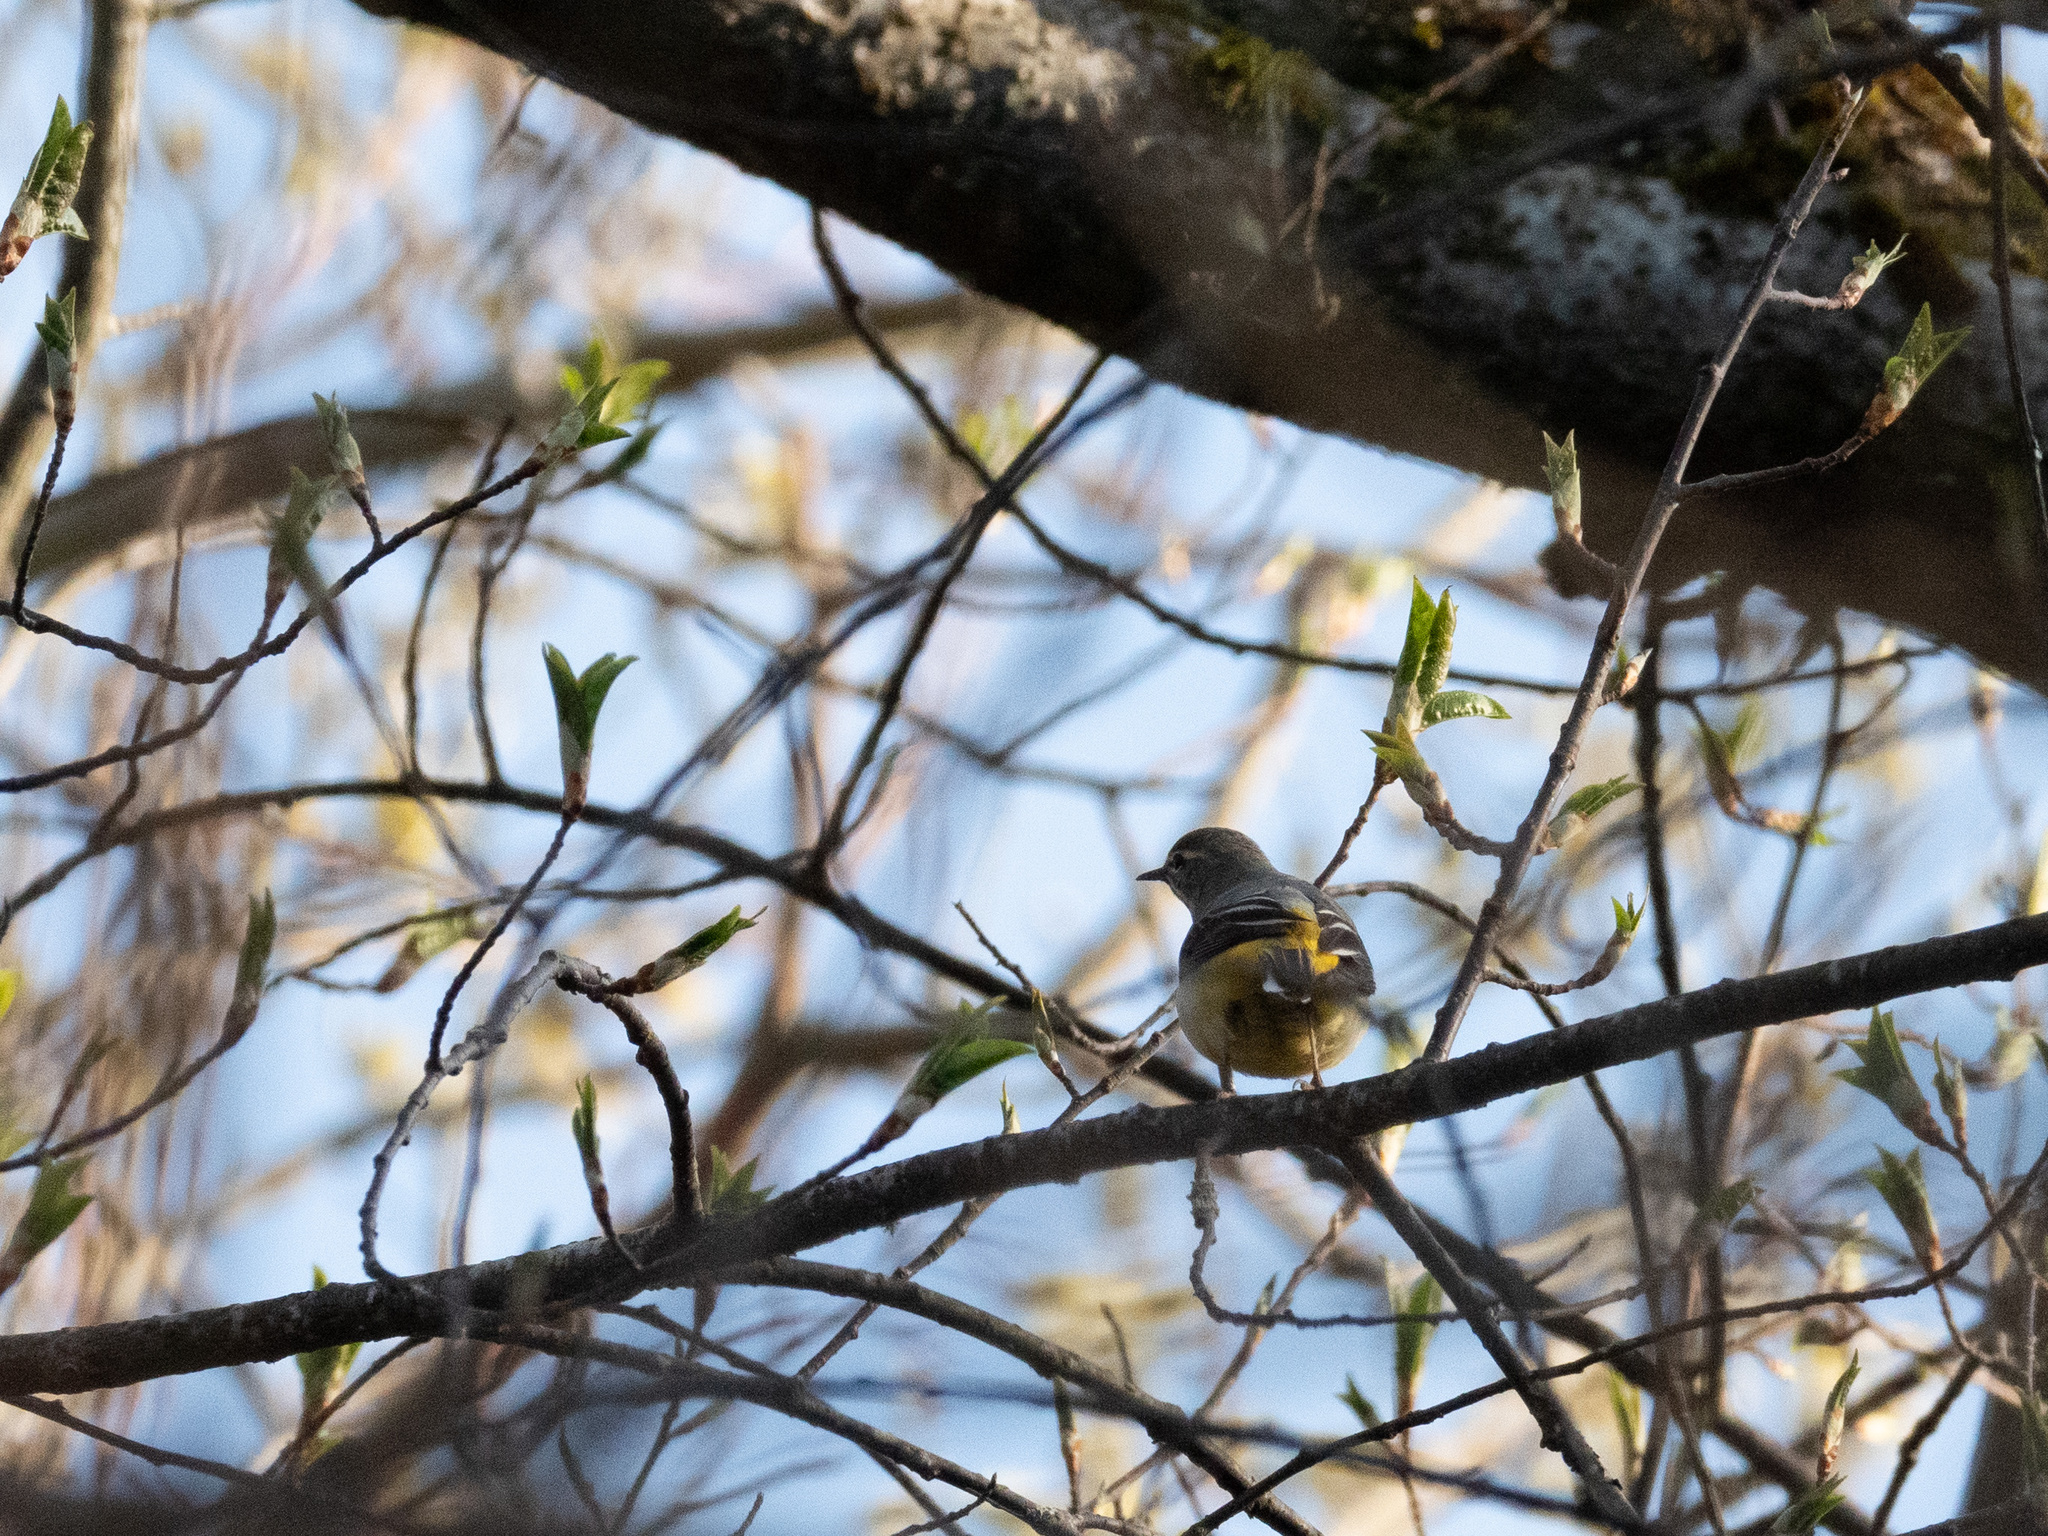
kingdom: Animalia
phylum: Chordata
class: Aves
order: Passeriformes
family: Motacillidae
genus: Motacilla
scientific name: Motacilla cinerea
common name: Grey wagtail
